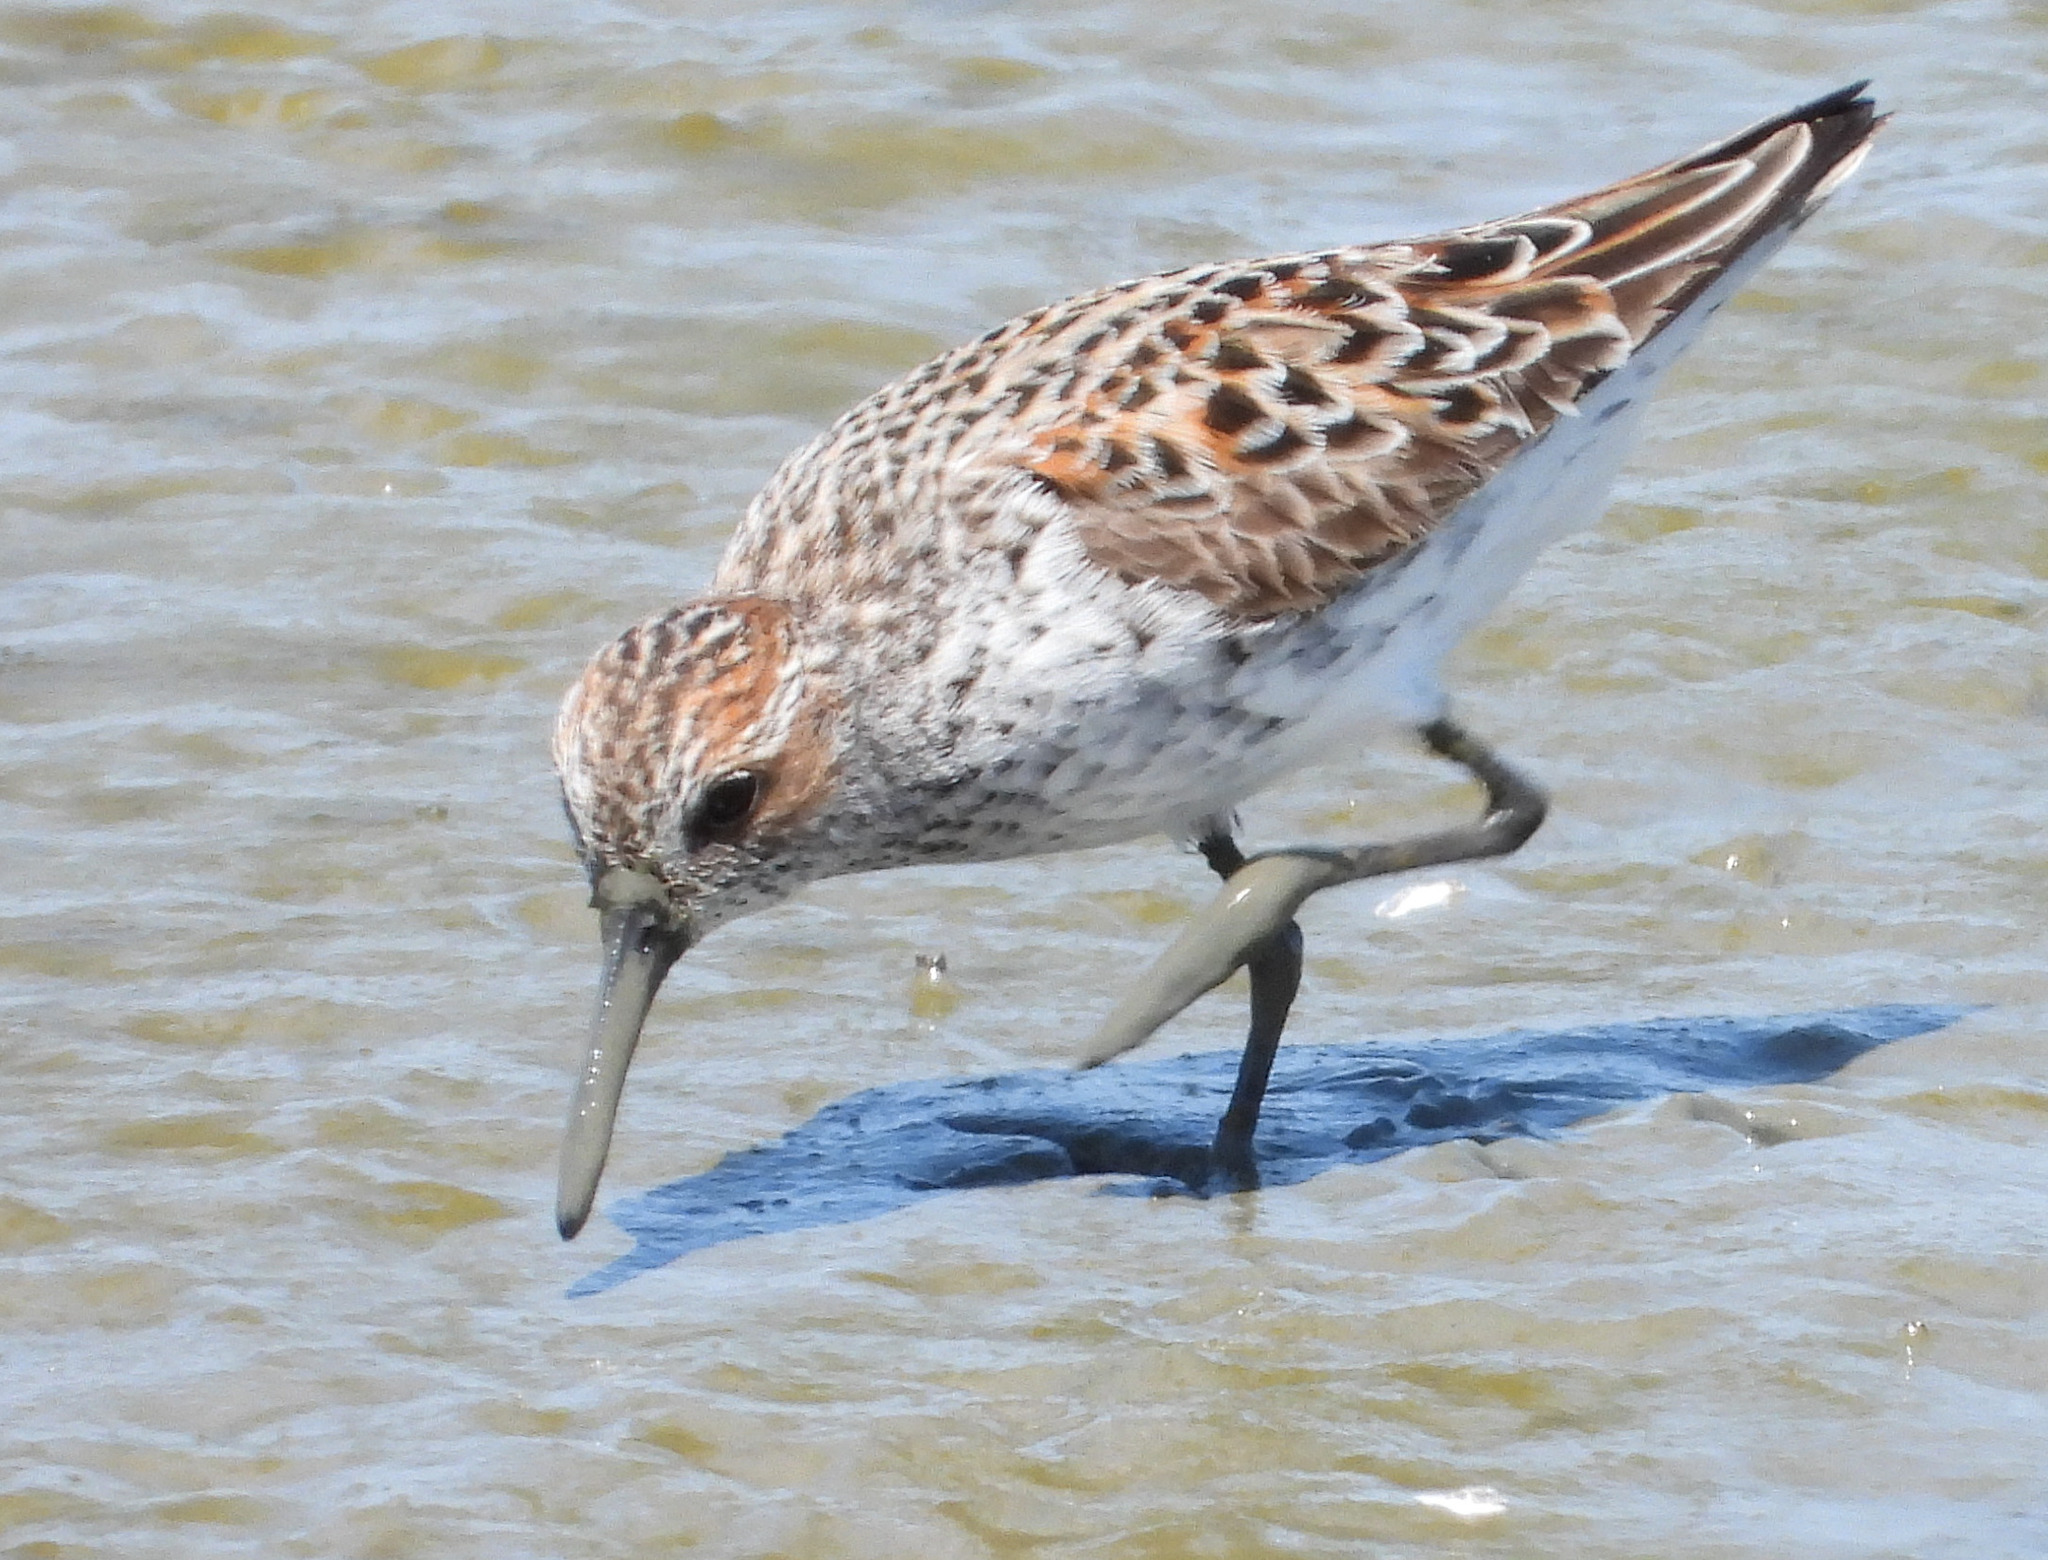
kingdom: Animalia
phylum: Chordata
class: Aves
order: Charadriiformes
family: Scolopacidae
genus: Calidris
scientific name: Calidris mauri
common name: Western sandpiper
